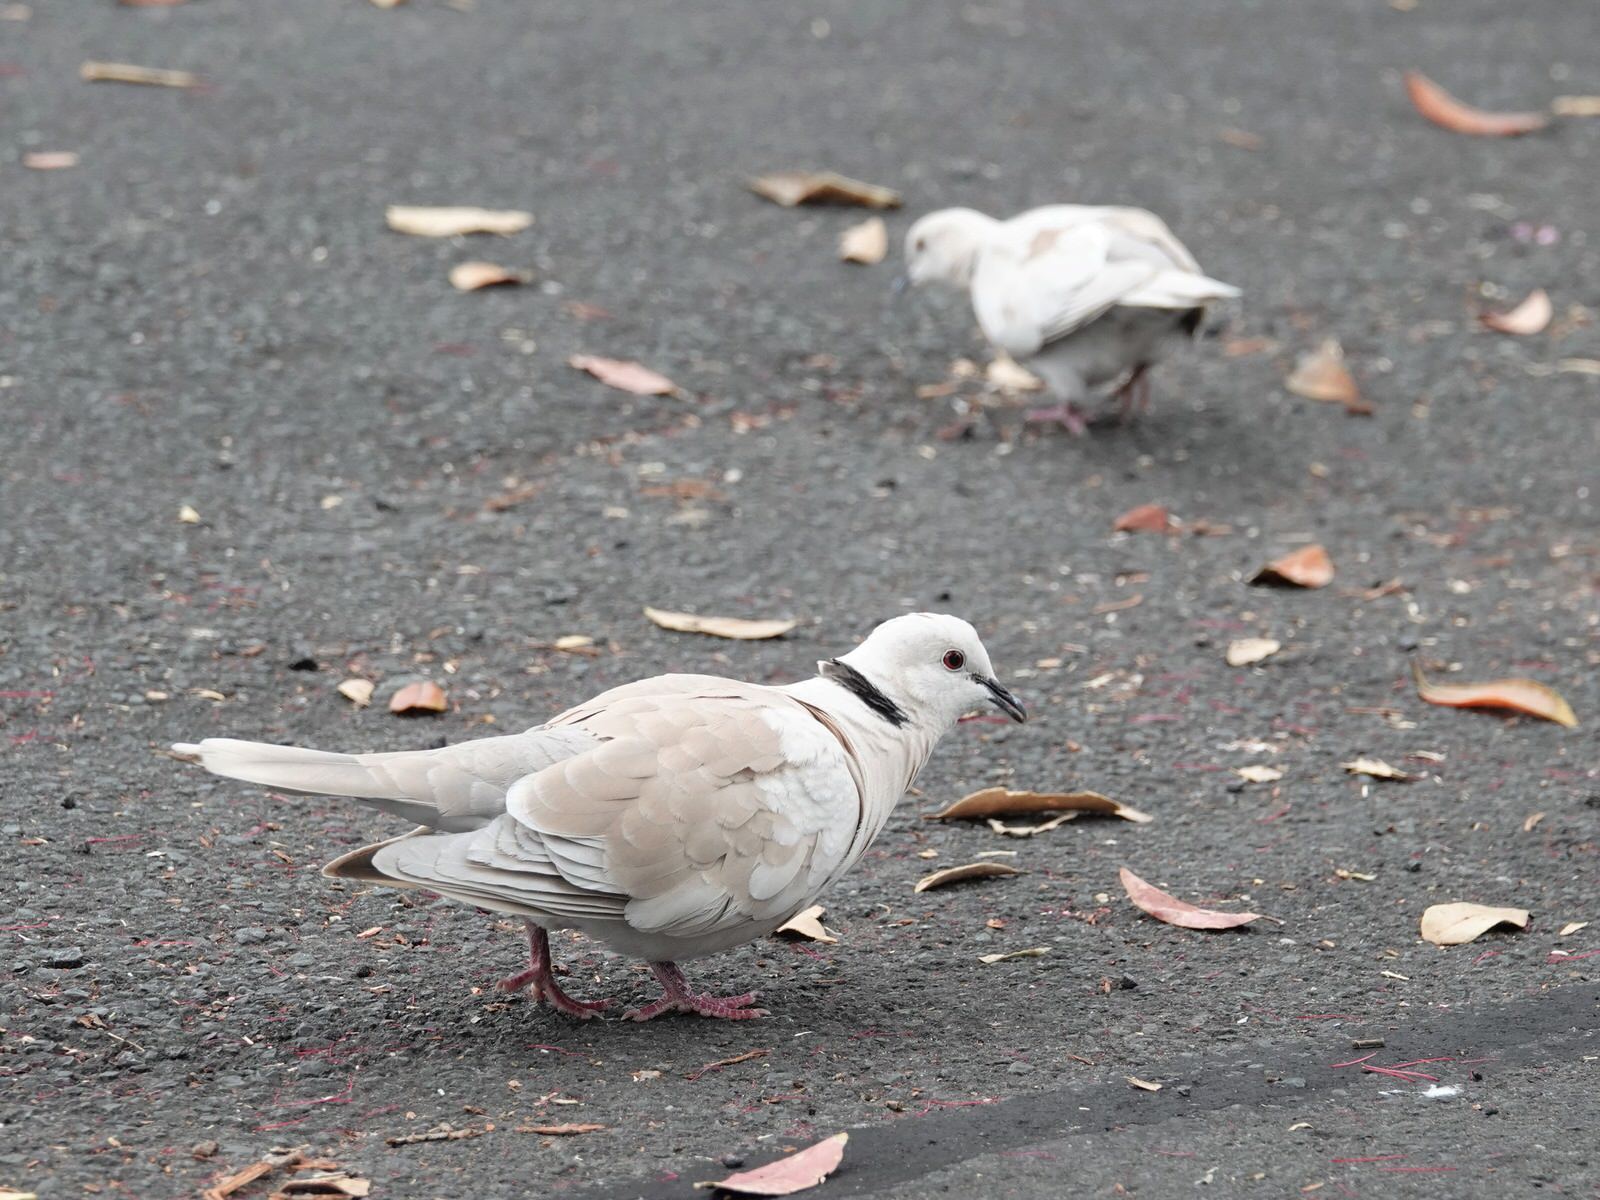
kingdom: Animalia
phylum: Chordata
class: Aves
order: Columbiformes
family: Columbidae
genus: Streptopelia
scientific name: Streptopelia roseogrisea
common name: African collared dove
